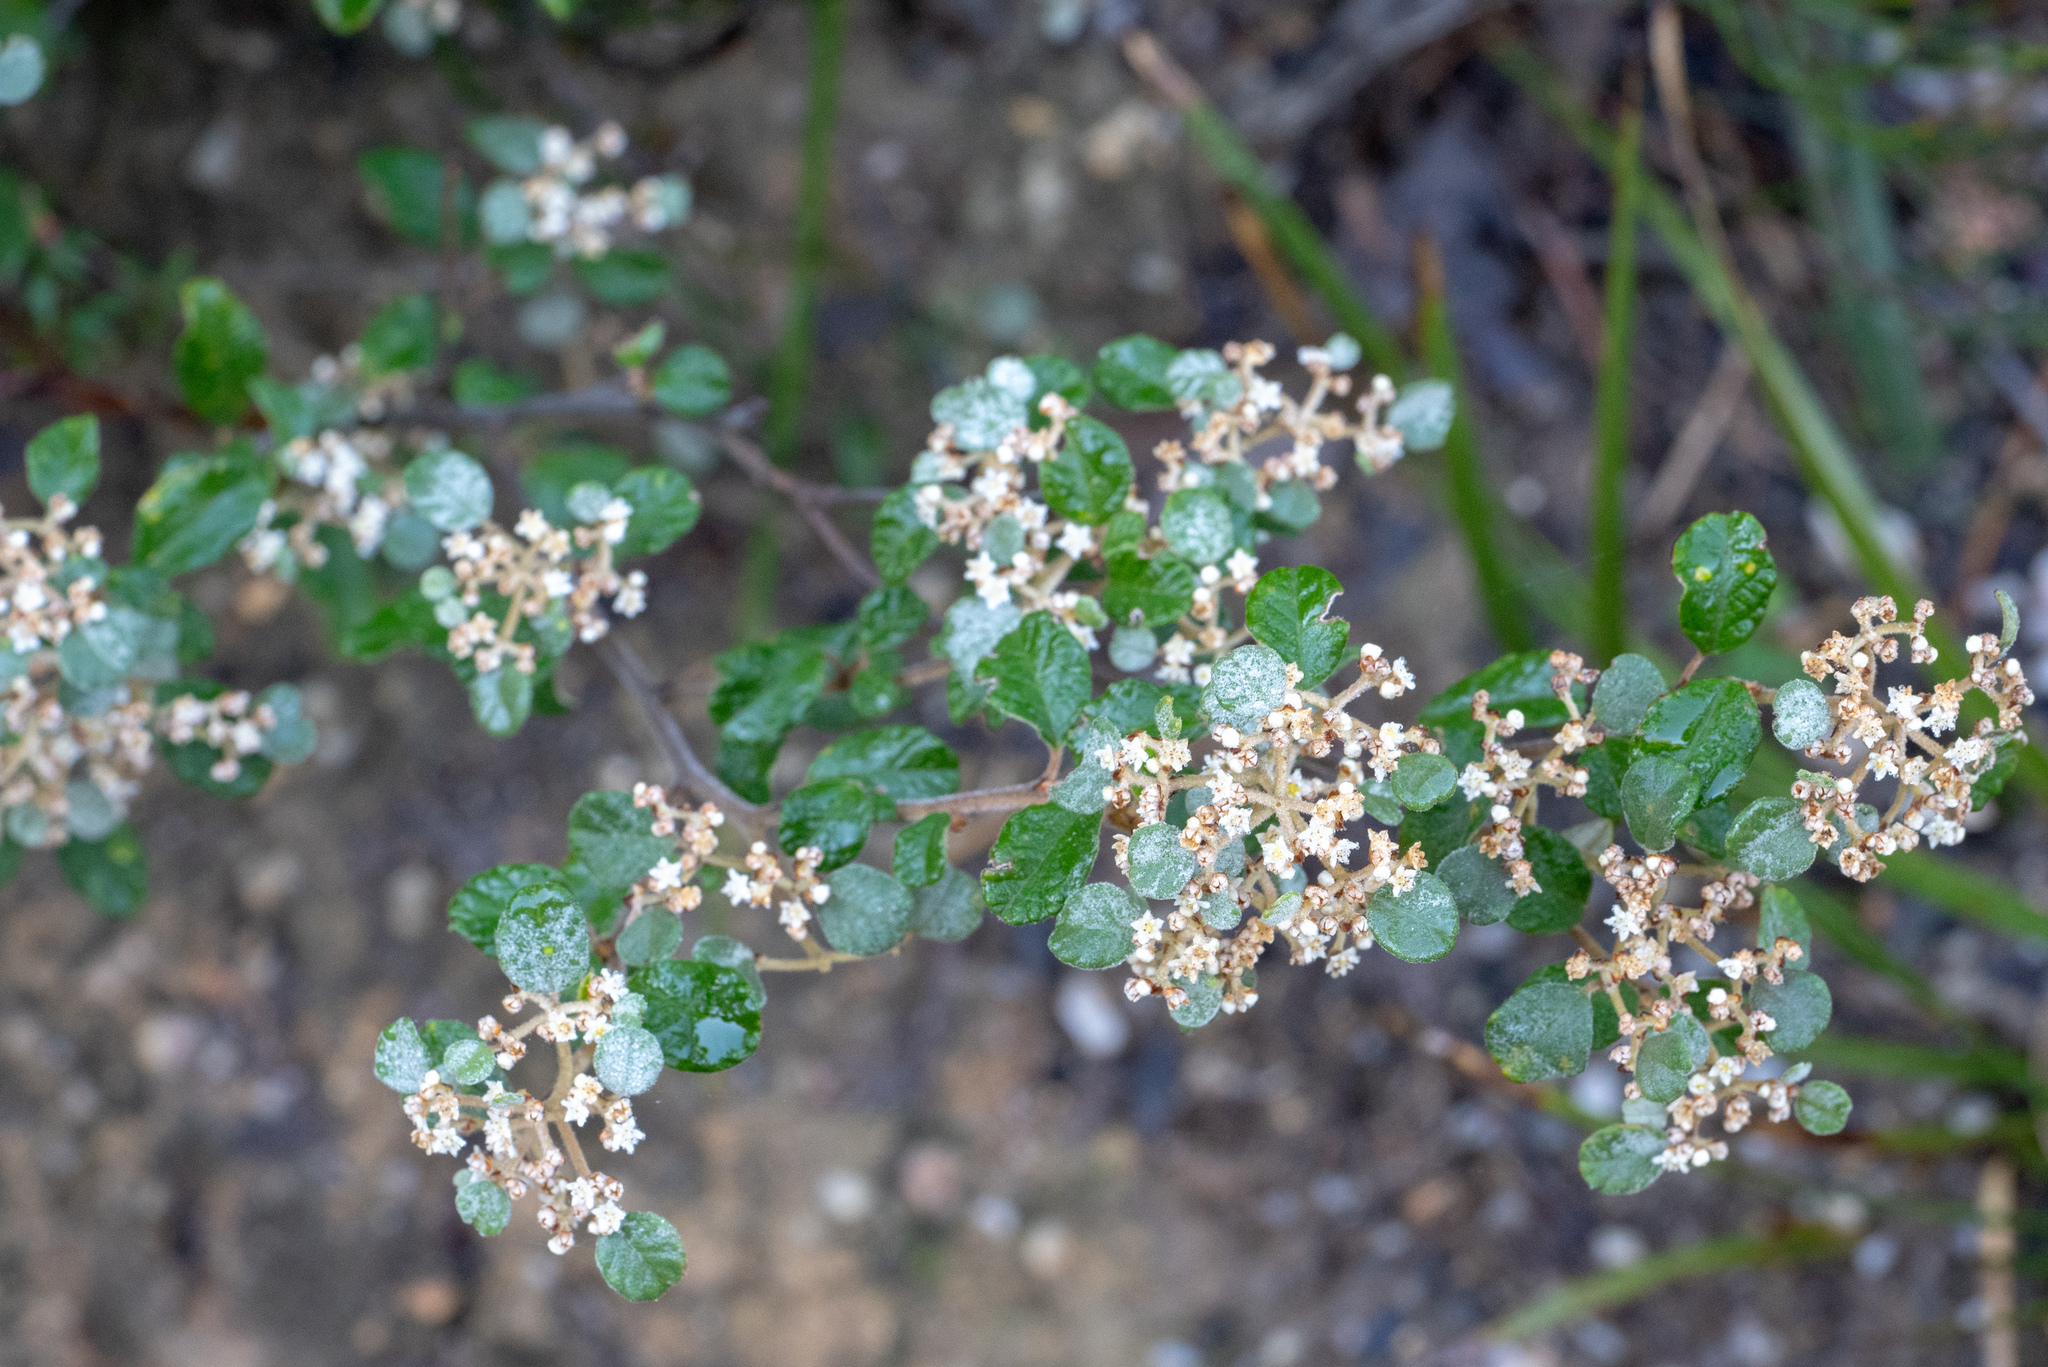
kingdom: Plantae
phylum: Tracheophyta
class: Magnoliopsida
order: Rosales
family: Rhamnaceae
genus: Spyridium
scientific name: Spyridium parvifolium
